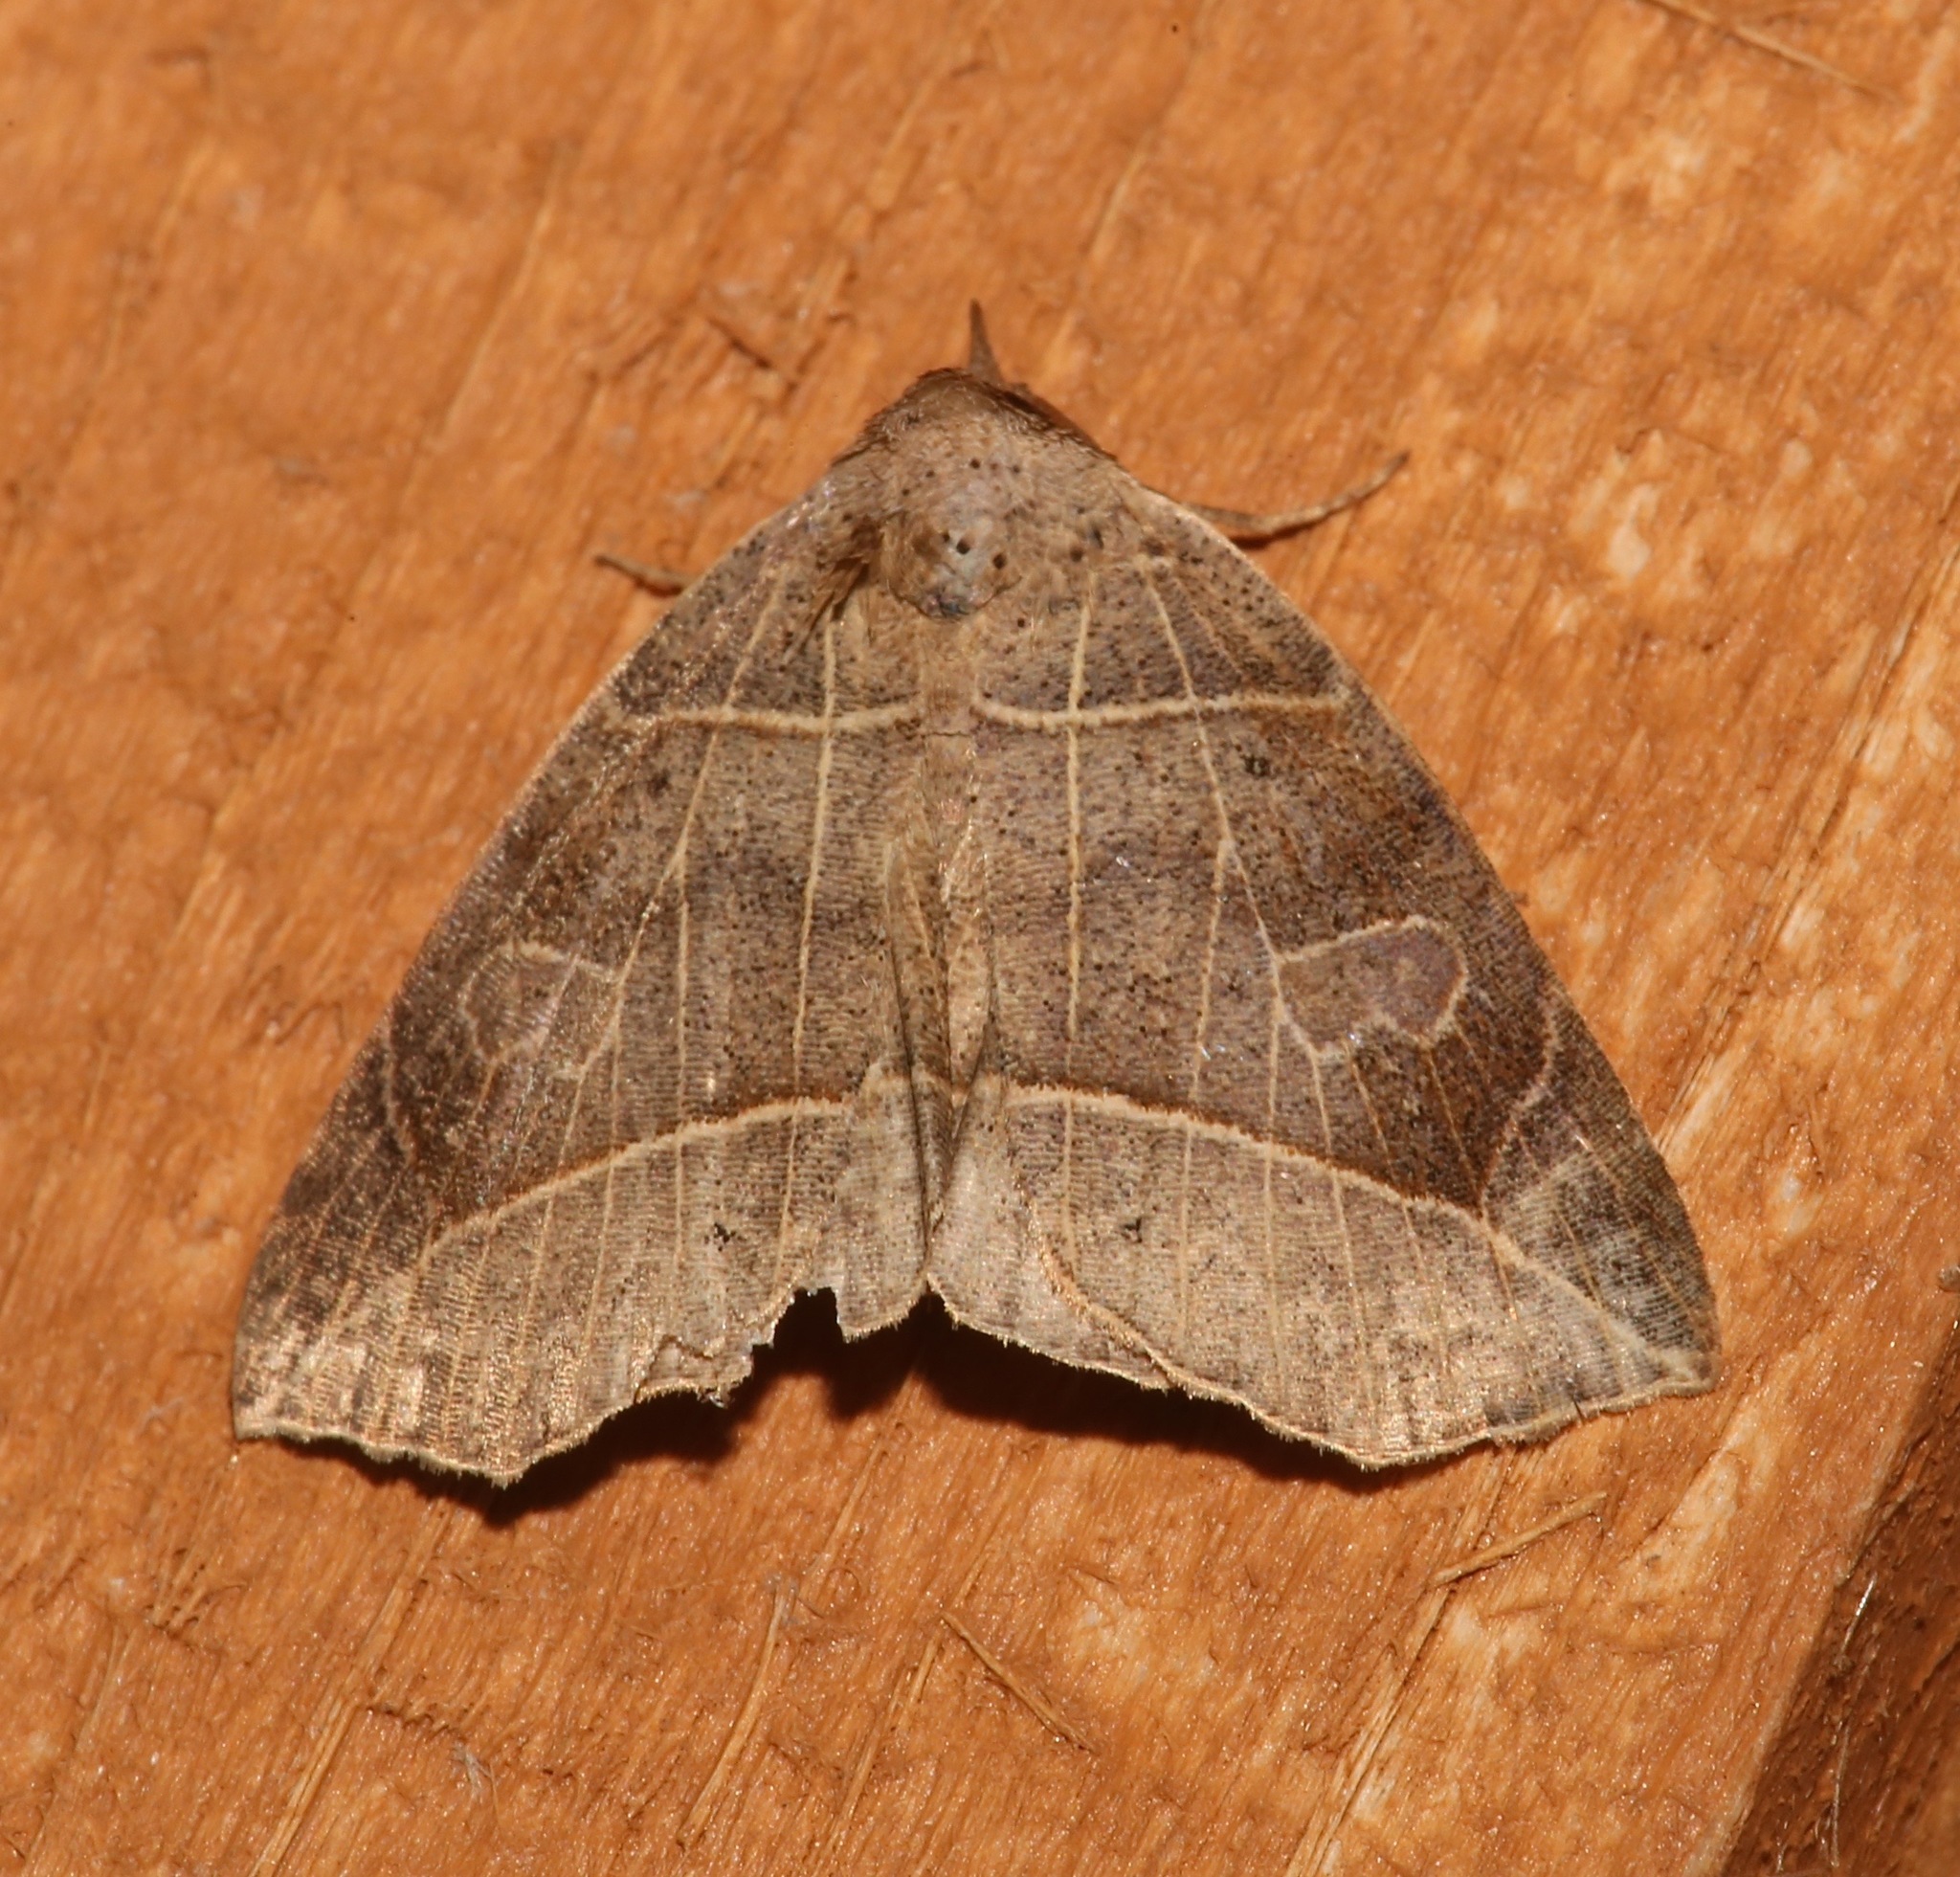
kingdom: Animalia
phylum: Arthropoda
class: Insecta
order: Lepidoptera
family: Erebidae
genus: Isogona
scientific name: Isogona tenuis
